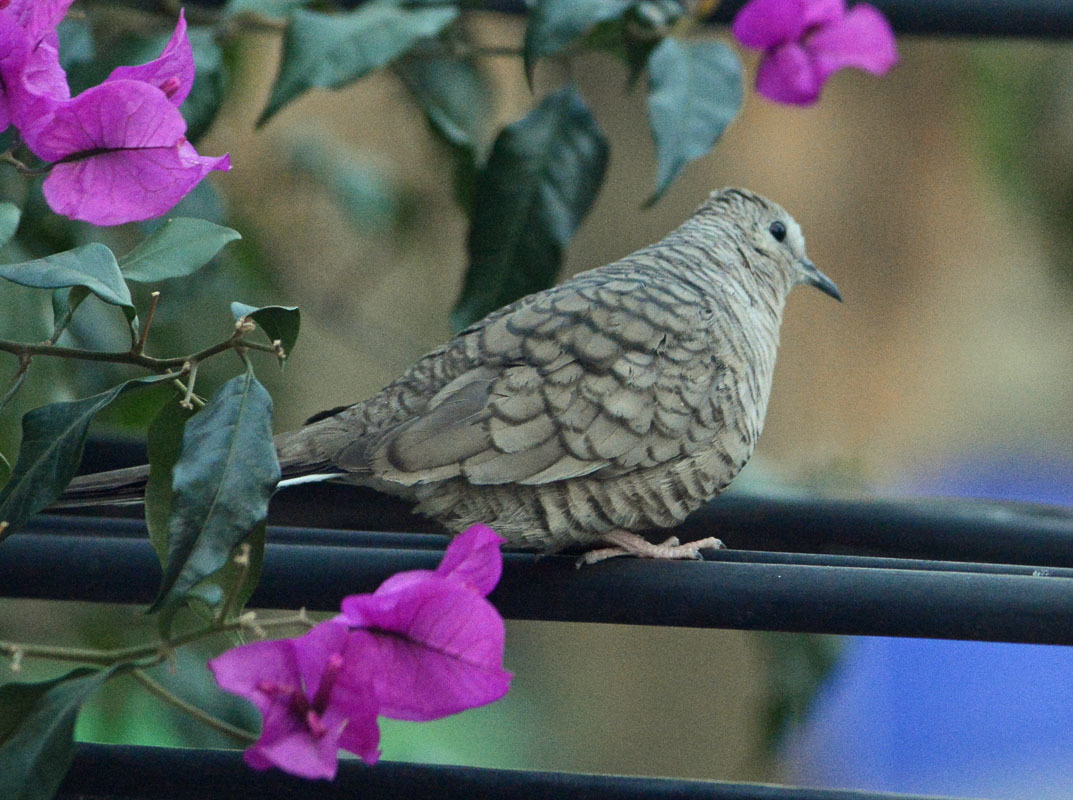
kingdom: Animalia
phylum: Chordata
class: Aves
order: Columbiformes
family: Columbidae
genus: Columbina
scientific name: Columbina inca
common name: Inca dove
